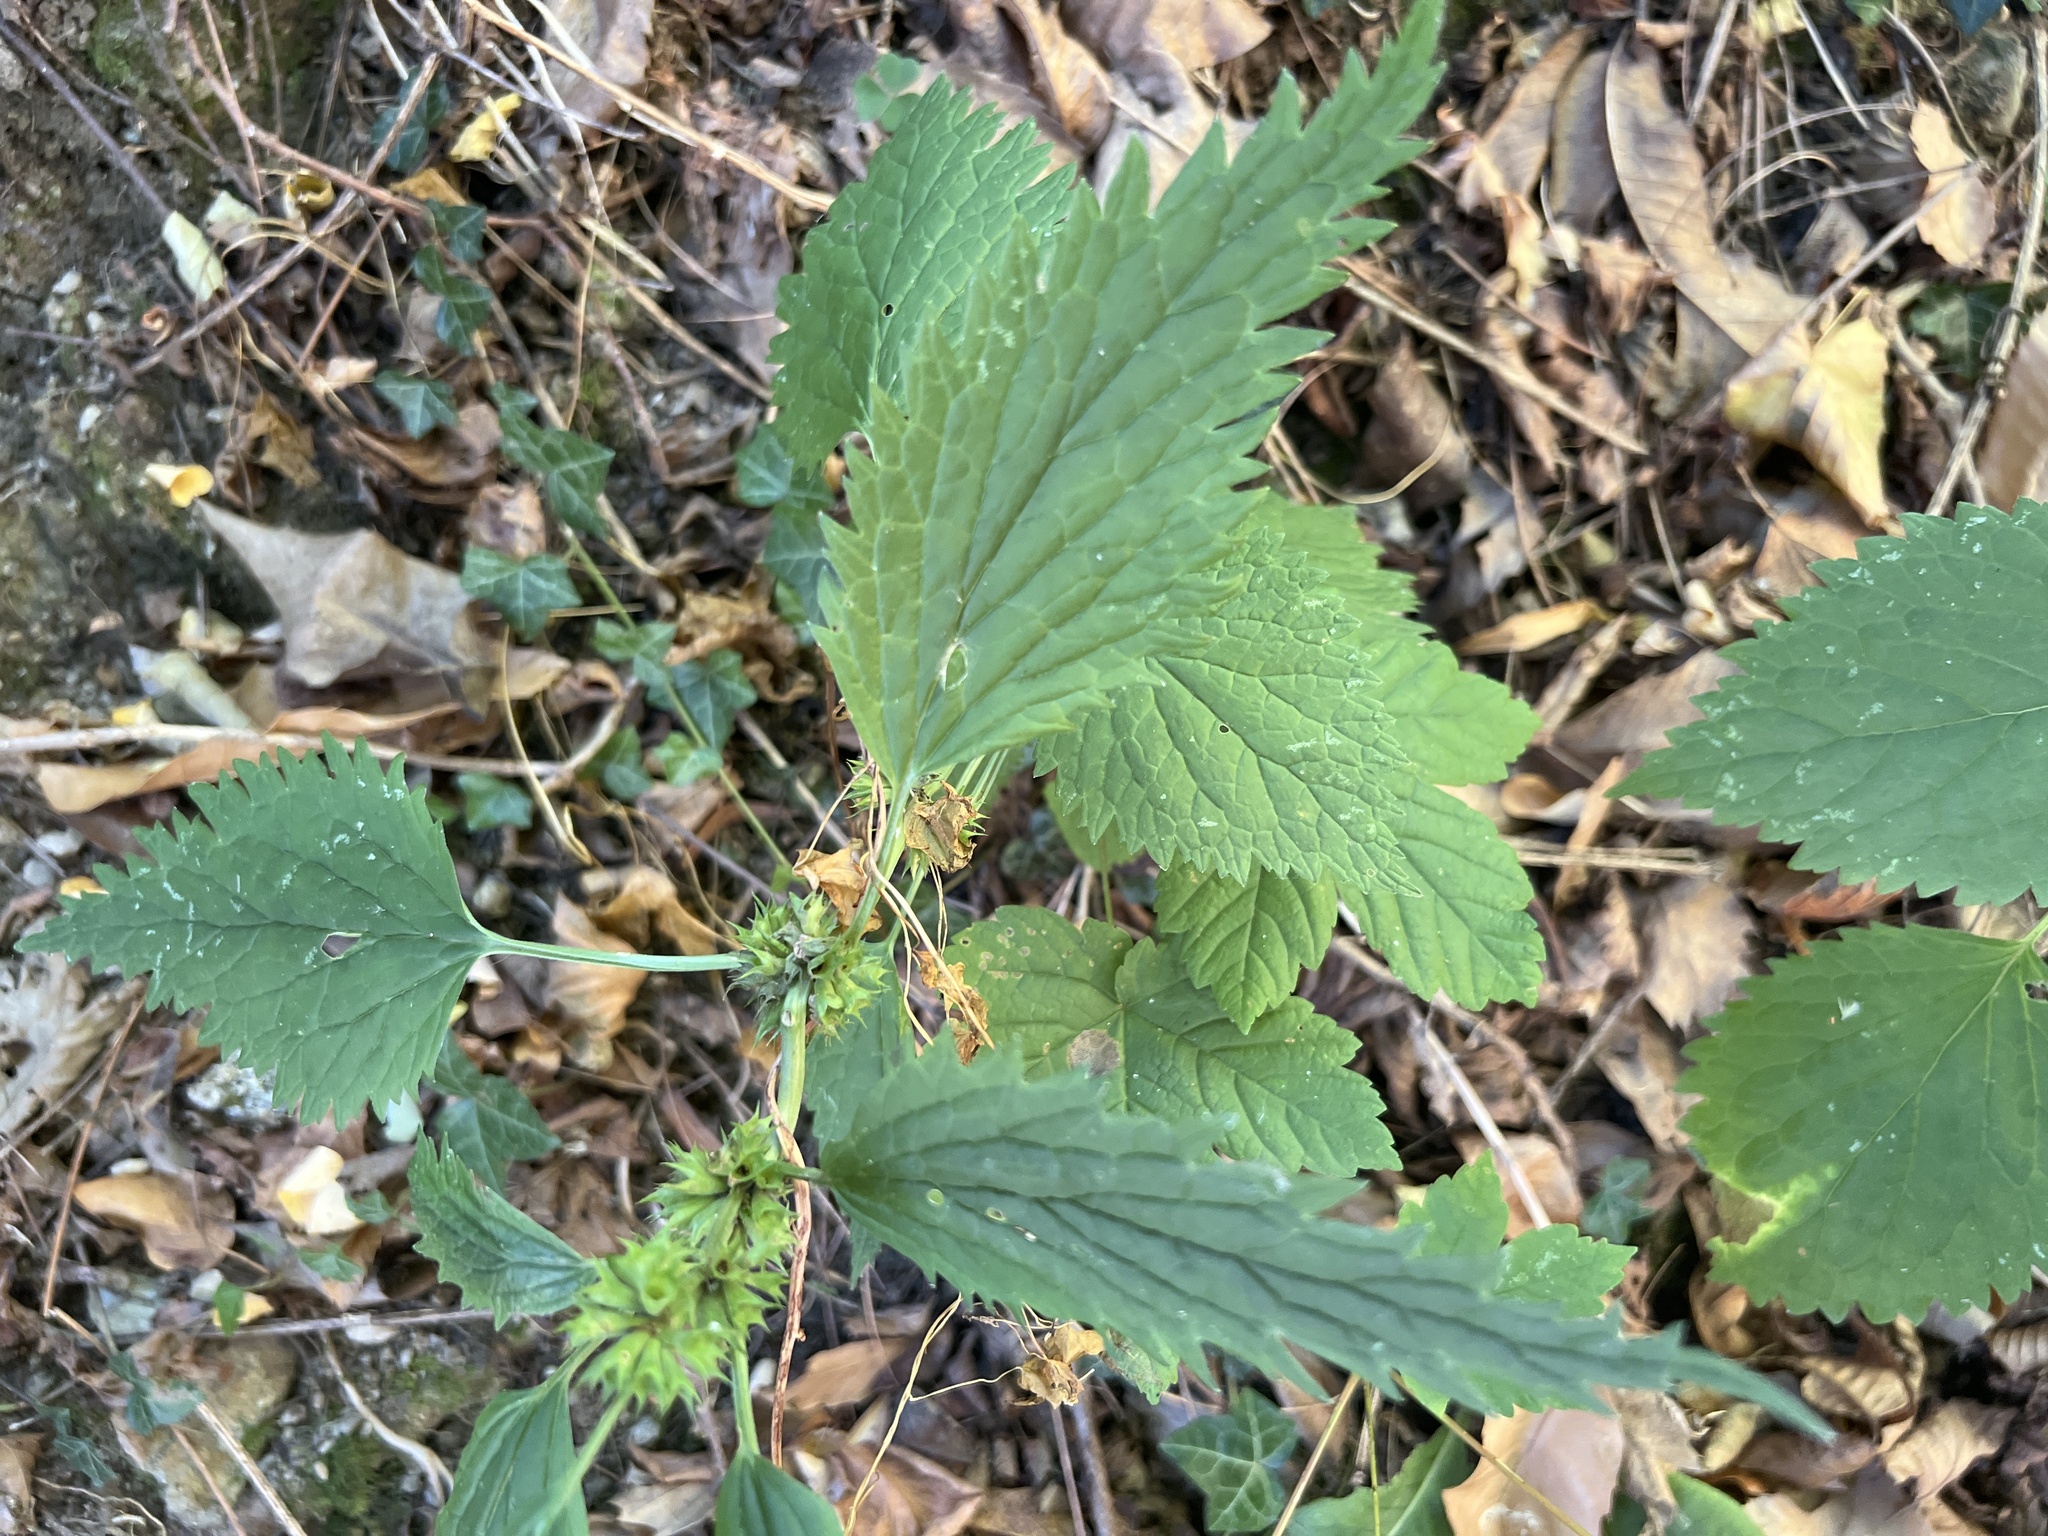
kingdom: Plantae
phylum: Tracheophyta
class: Magnoliopsida
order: Lamiales
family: Lamiaceae
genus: Lamium
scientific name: Lamium galeobdolon
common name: Yellow archangel
